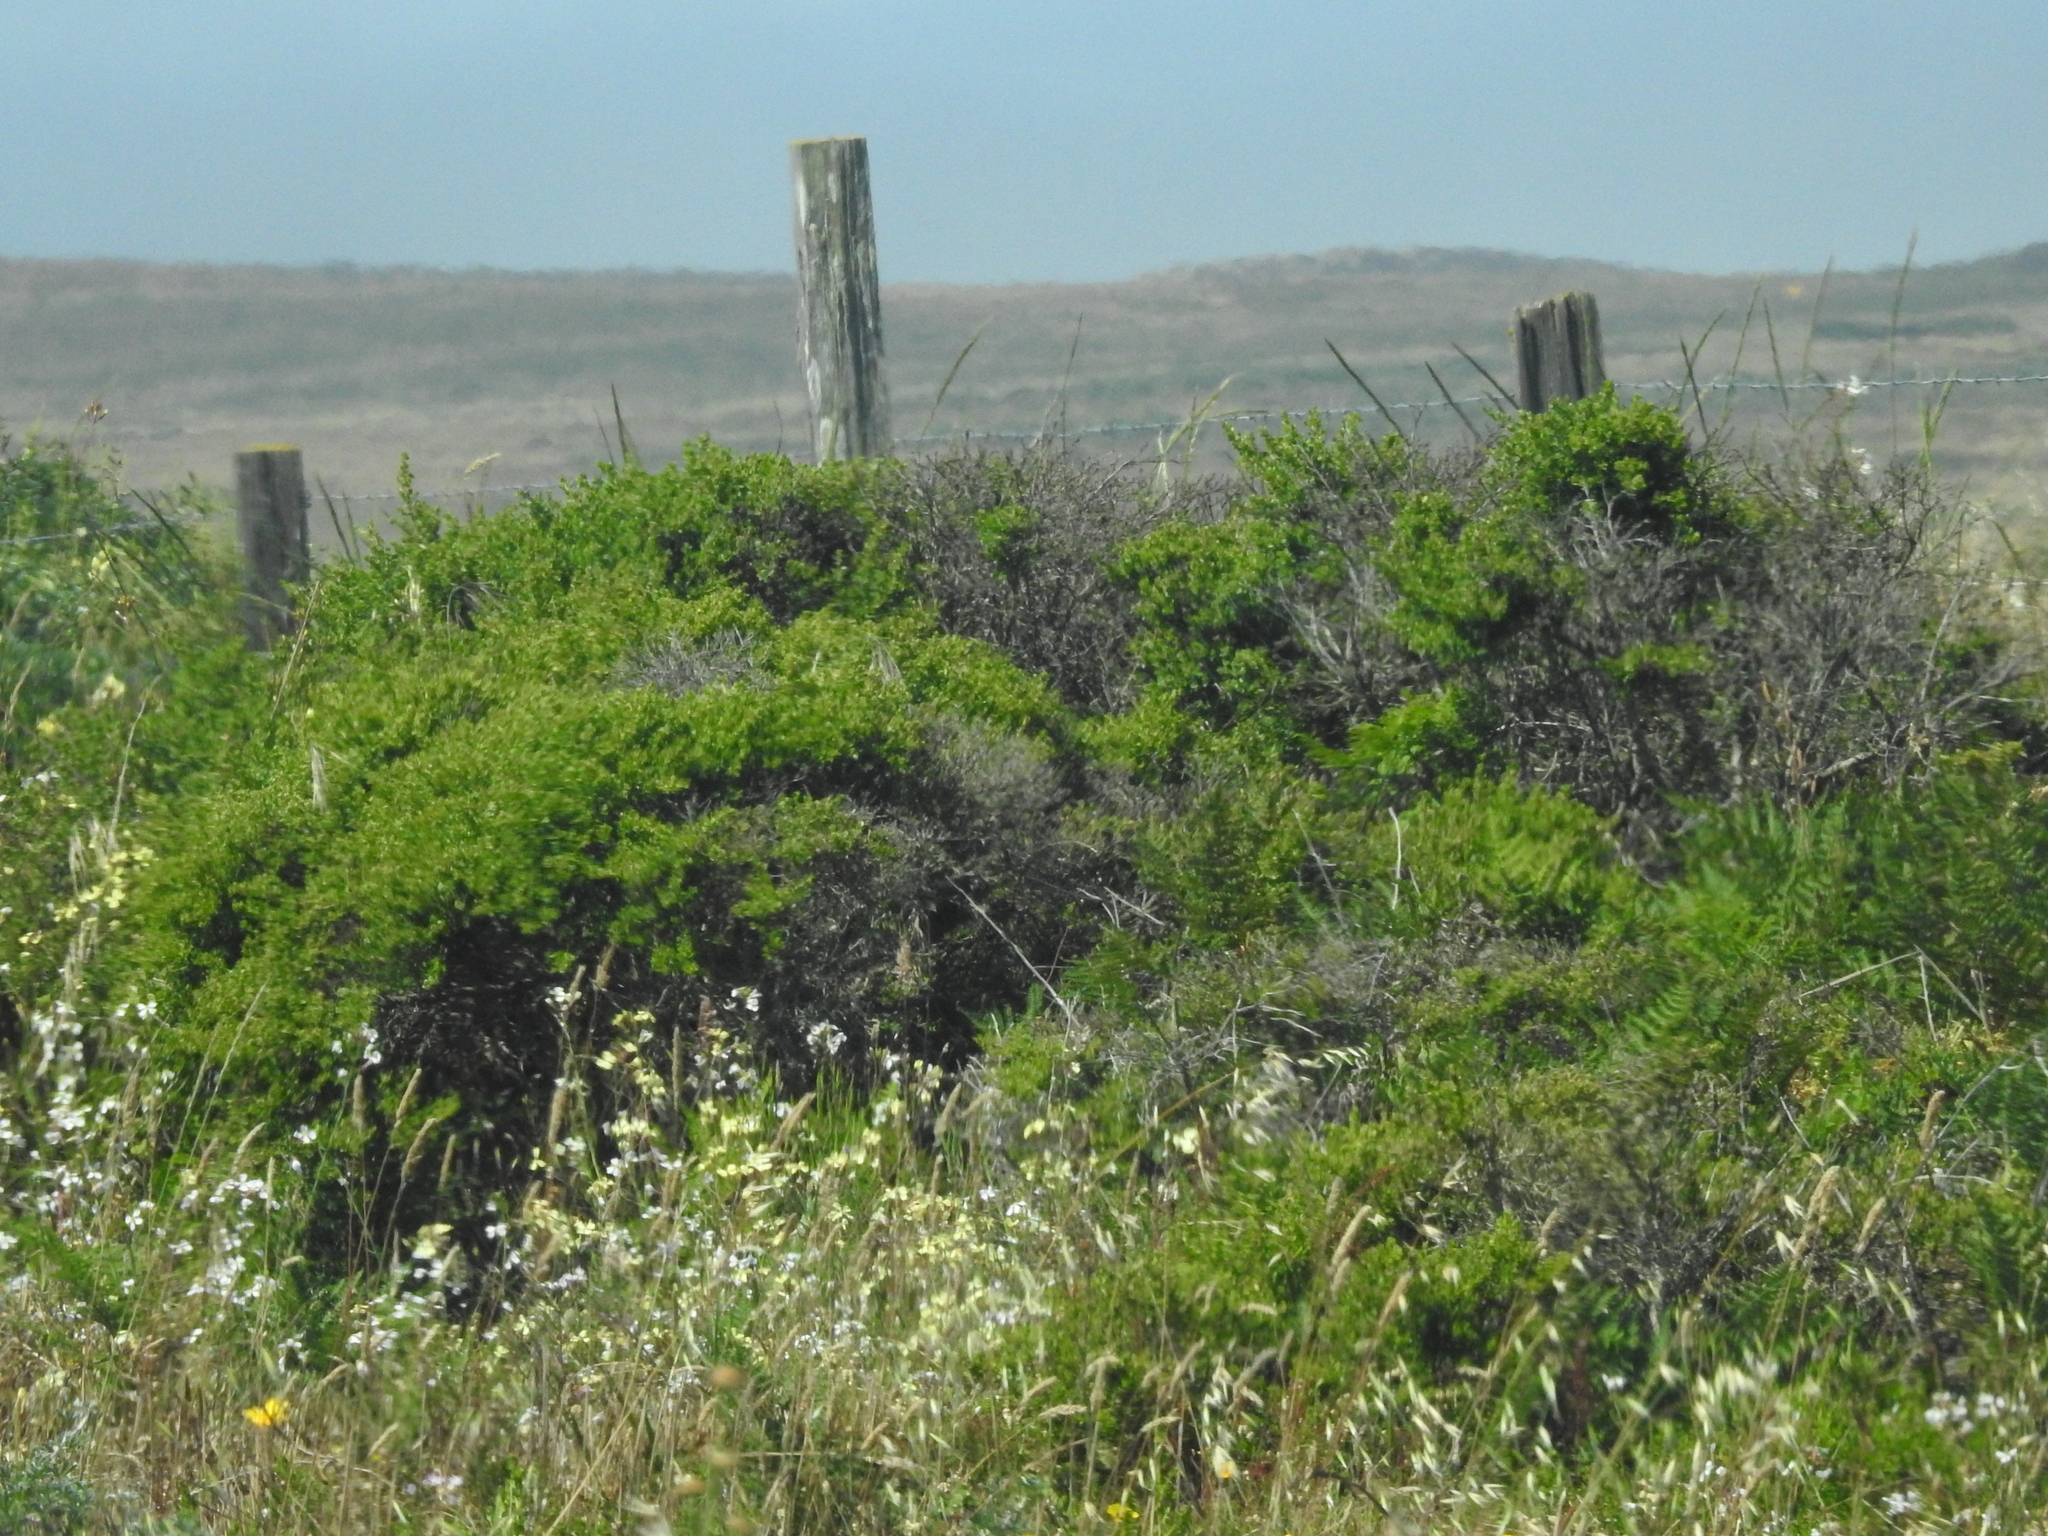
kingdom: Plantae
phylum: Tracheophyta
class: Magnoliopsida
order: Asterales
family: Asteraceae
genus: Baccharis
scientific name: Baccharis pilularis
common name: Coyotebrush
